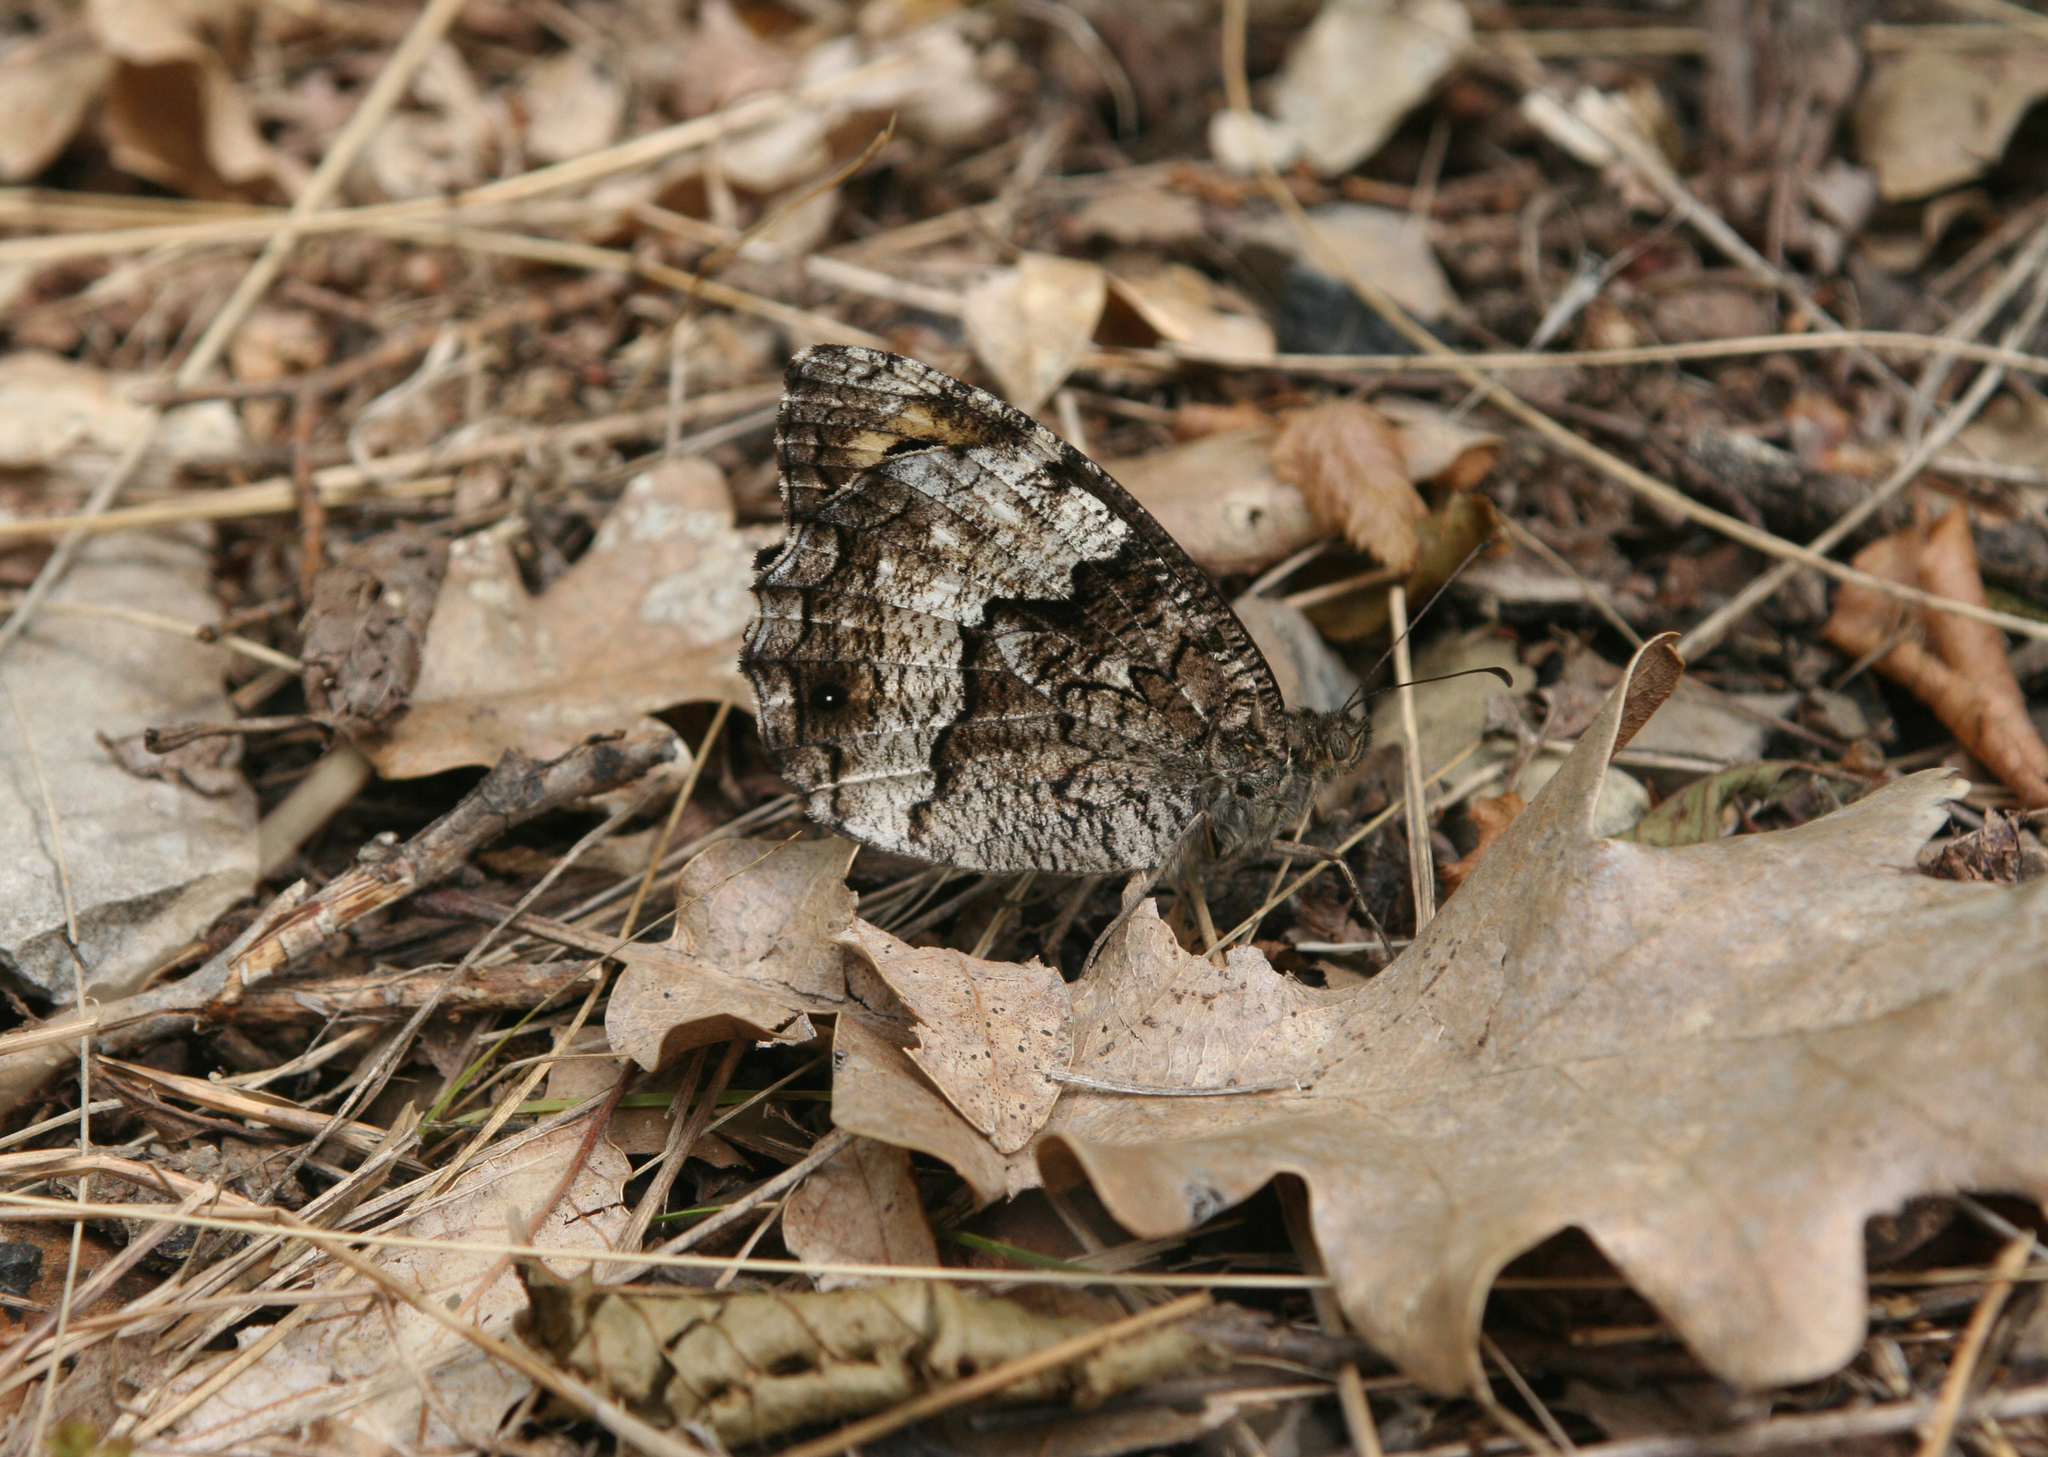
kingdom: Animalia
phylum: Arthropoda
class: Insecta
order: Lepidoptera
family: Nymphalidae
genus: Hipparchia
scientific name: Hipparchia fagi
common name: Woodland grayling
